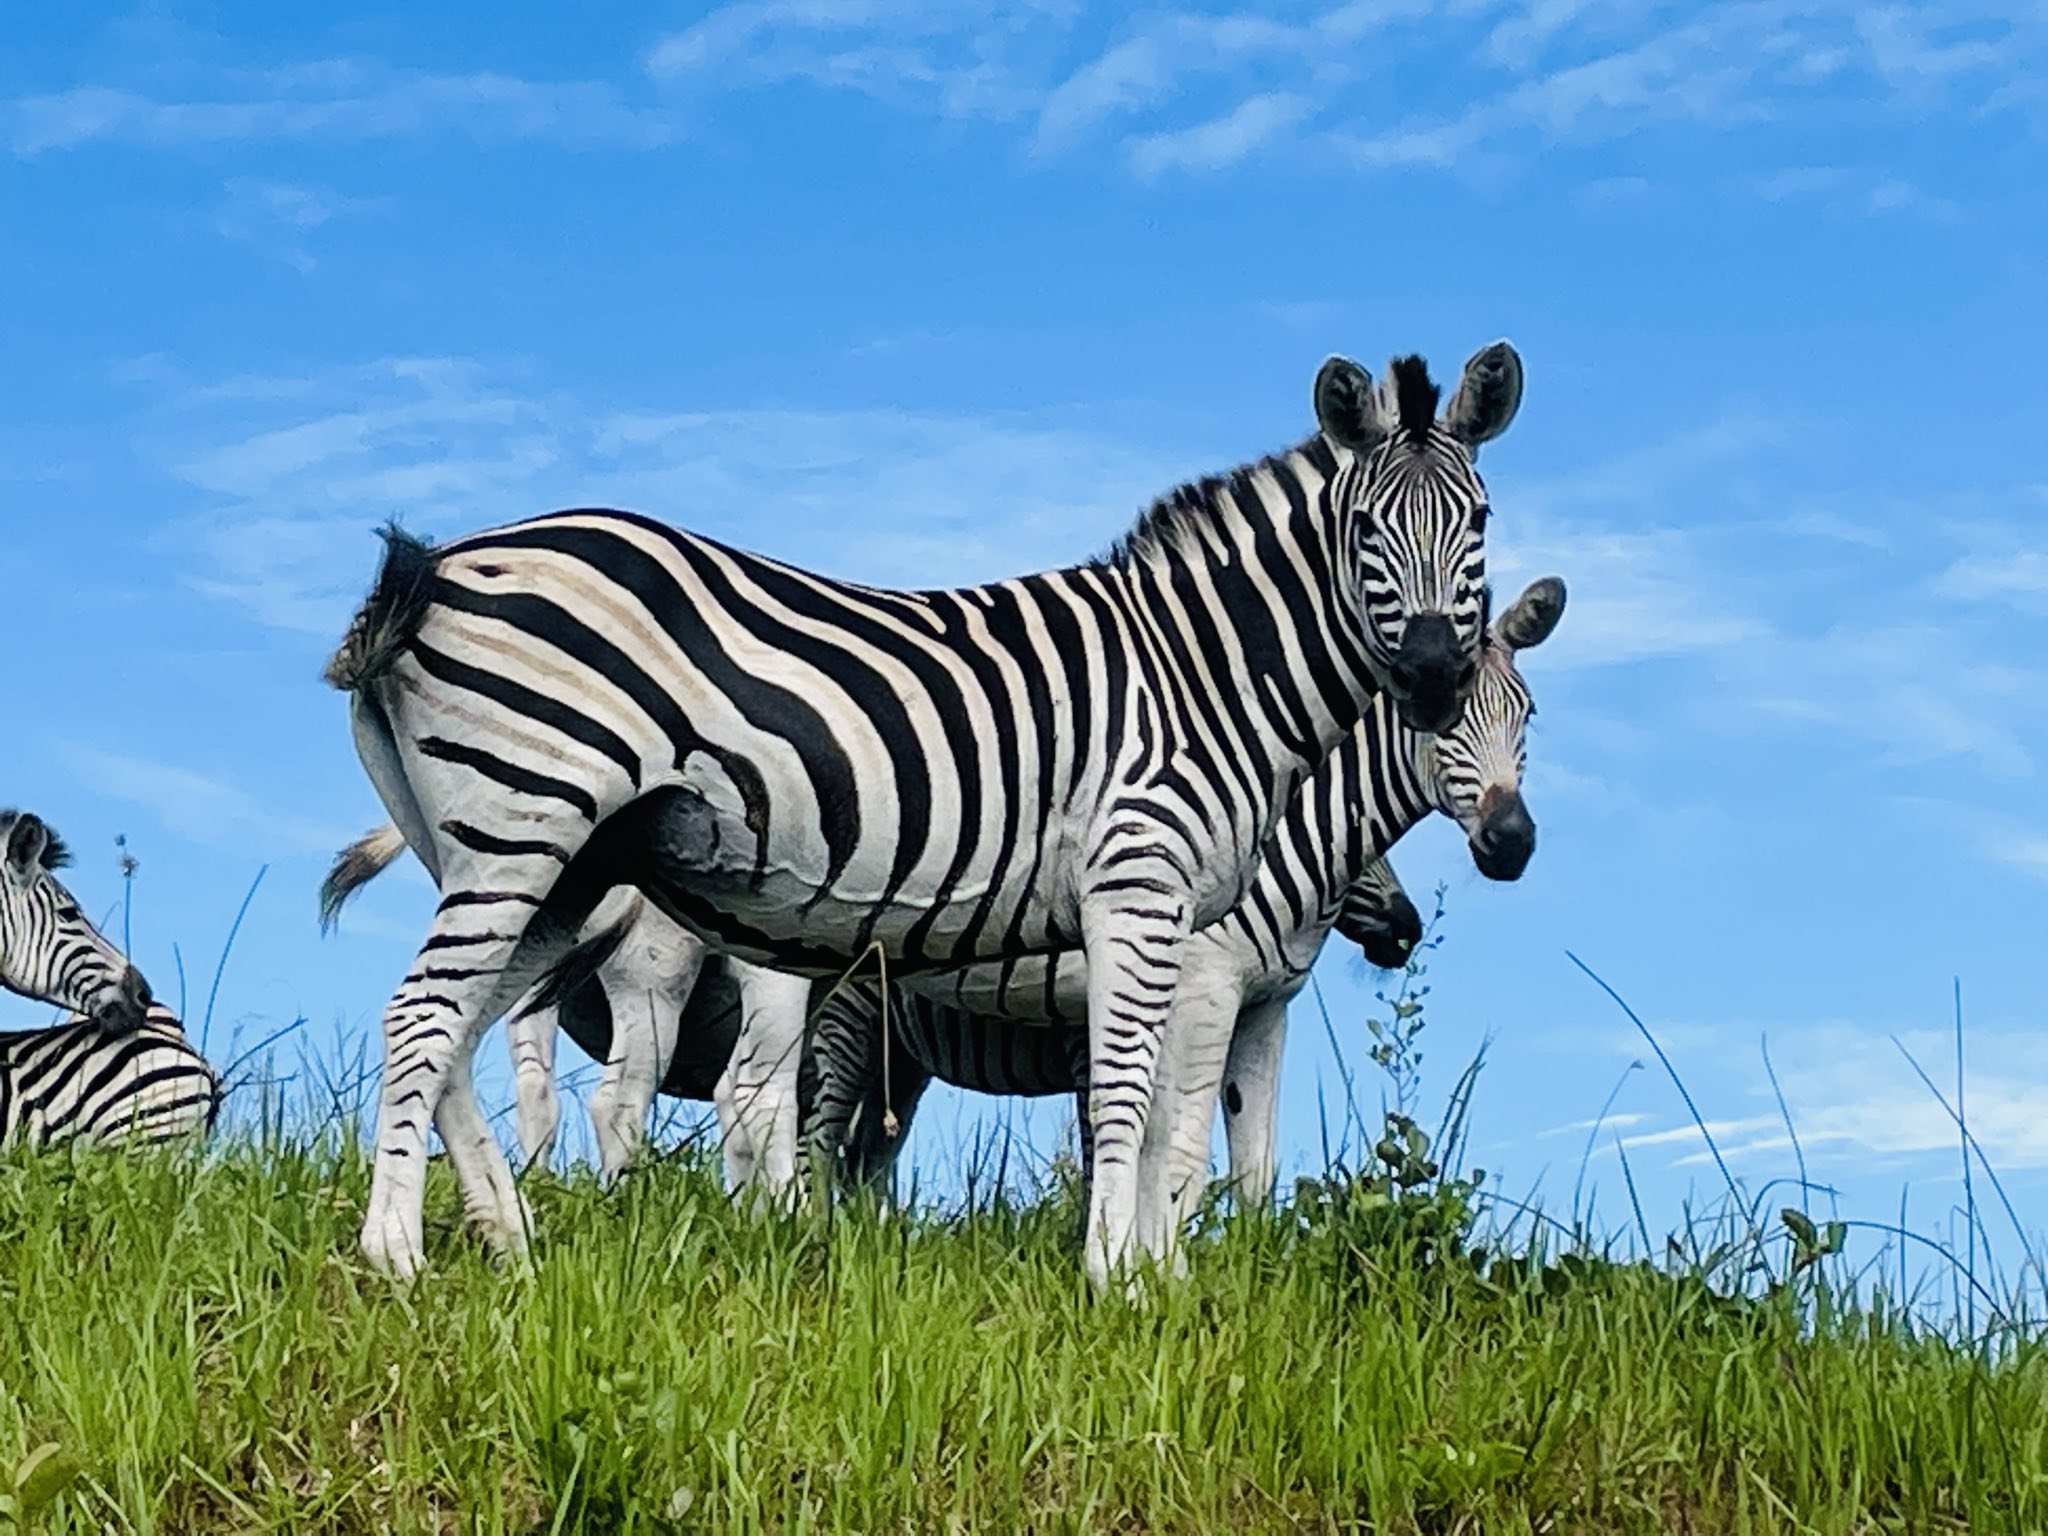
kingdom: Animalia
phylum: Chordata
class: Mammalia
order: Perissodactyla
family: Equidae
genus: Equus
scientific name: Equus quagga
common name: Plains zebra
